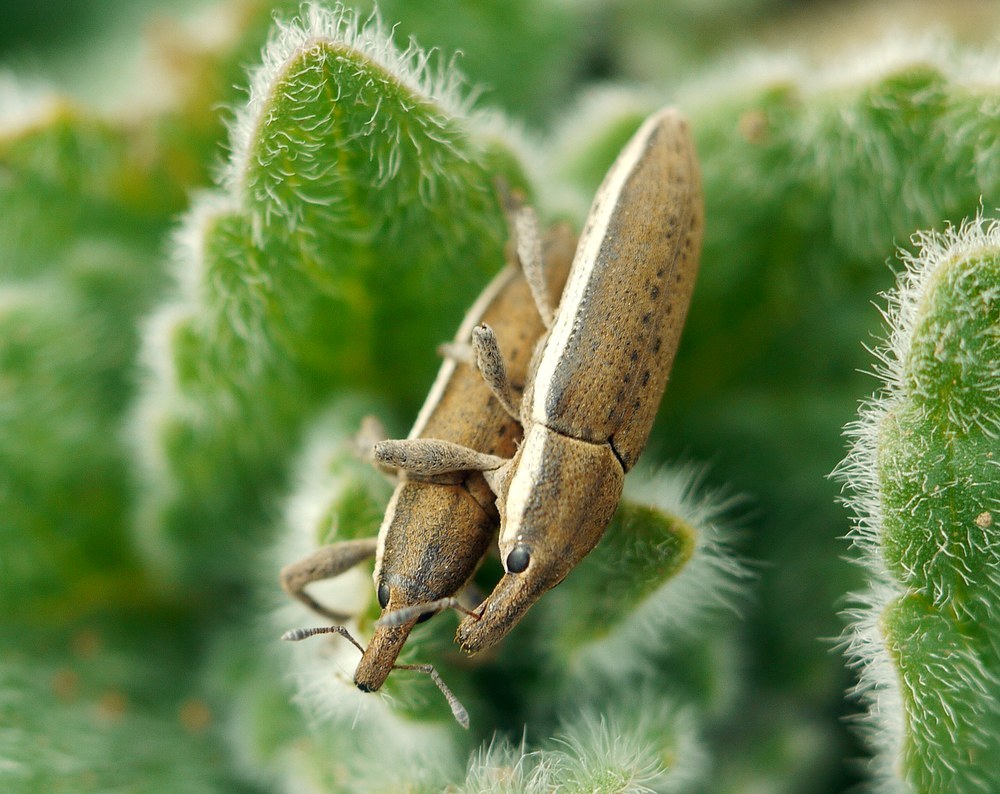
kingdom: Animalia
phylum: Arthropoda
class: Insecta
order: Coleoptera
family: Curculionidae
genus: Lixus
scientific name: Lixus albomarginatus
